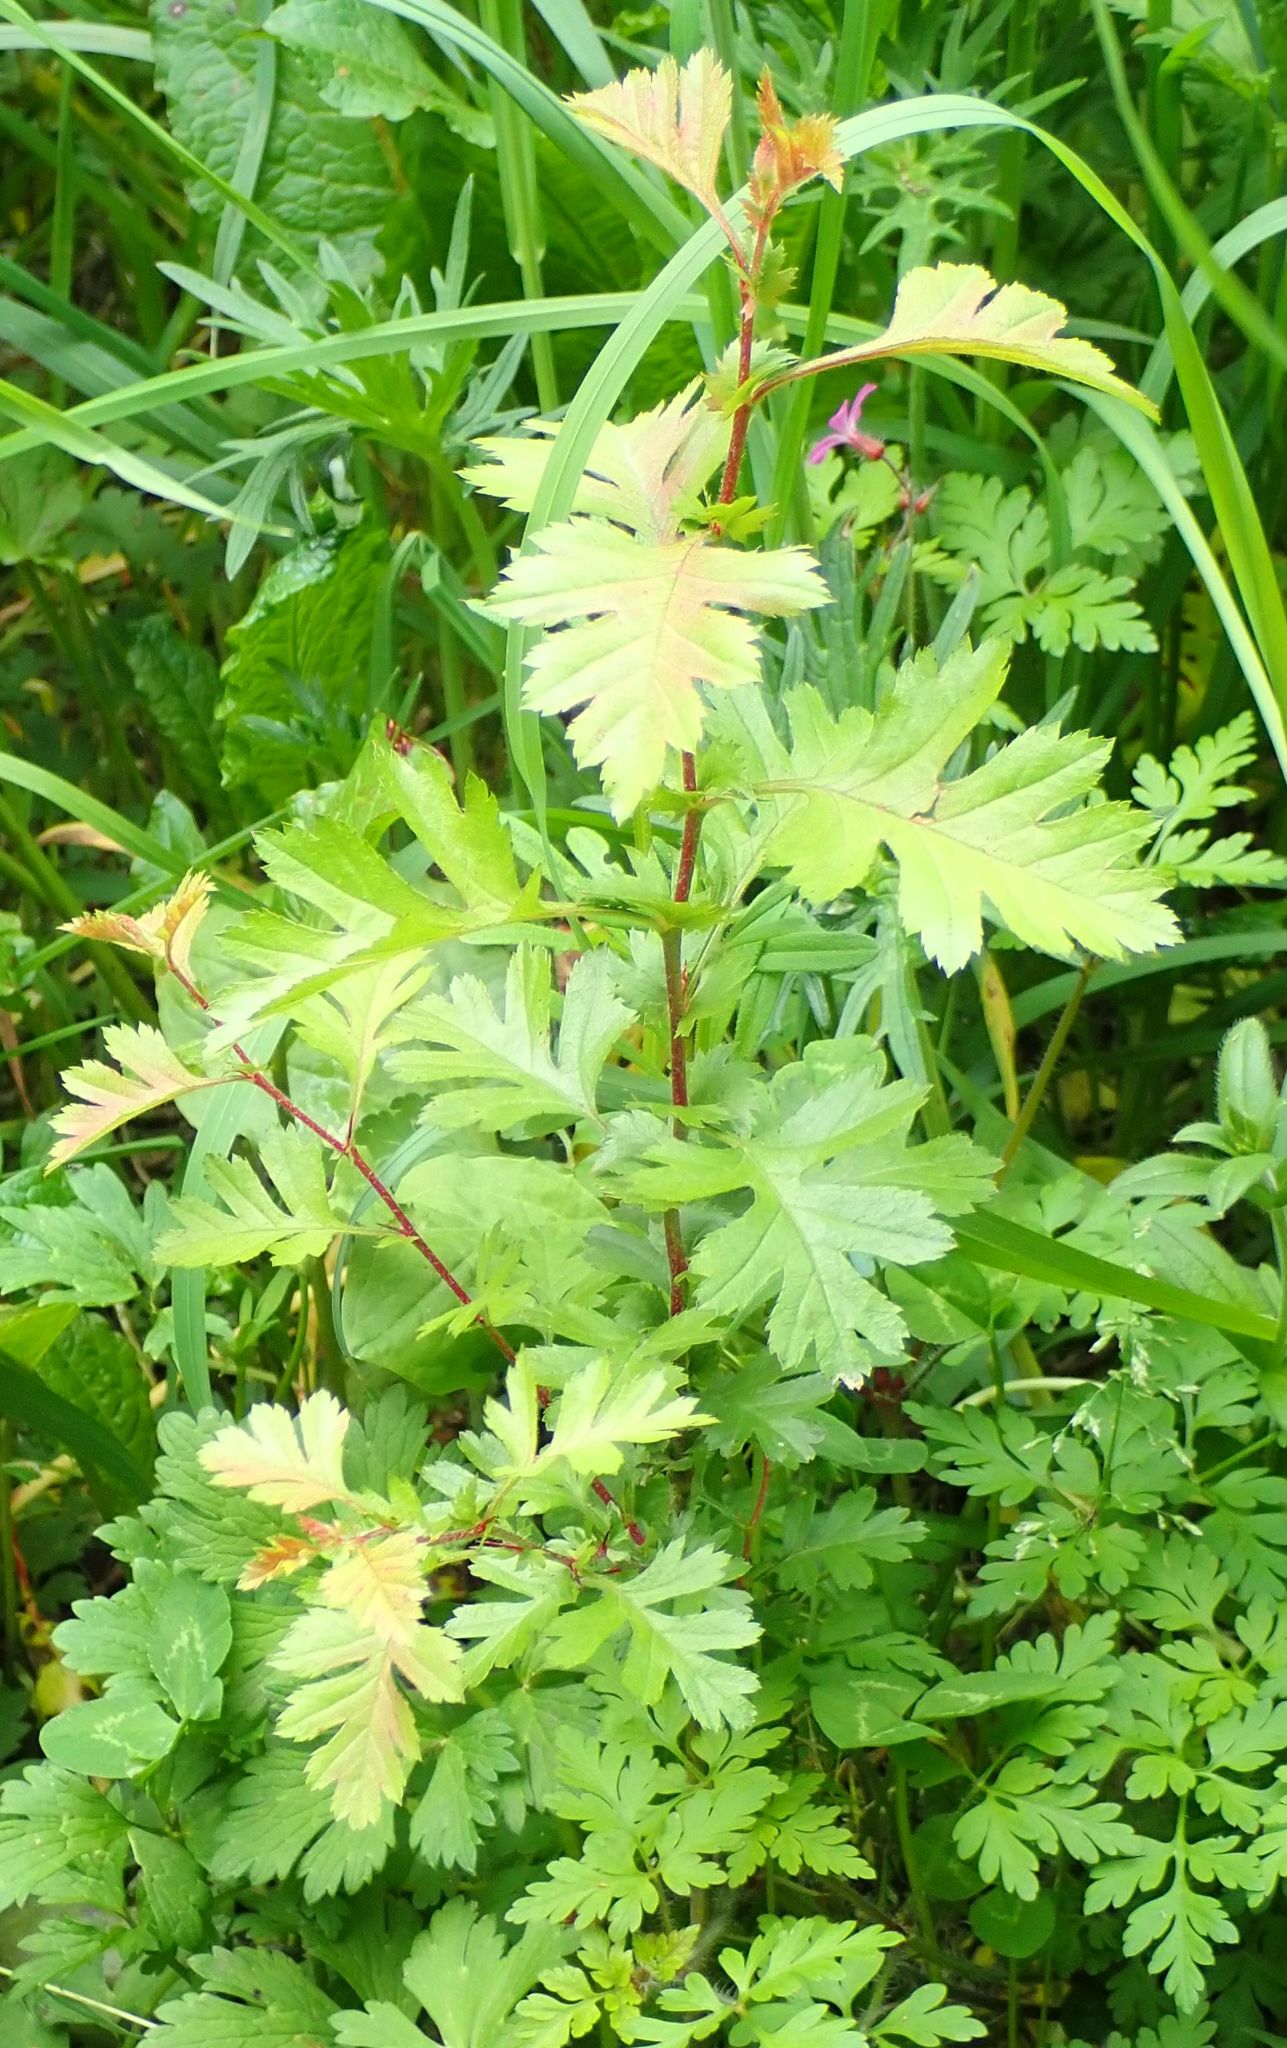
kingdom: Plantae
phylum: Tracheophyta
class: Magnoliopsida
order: Rosales
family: Rosaceae
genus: Crataegus
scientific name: Crataegus monogyna
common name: Hawthorn
